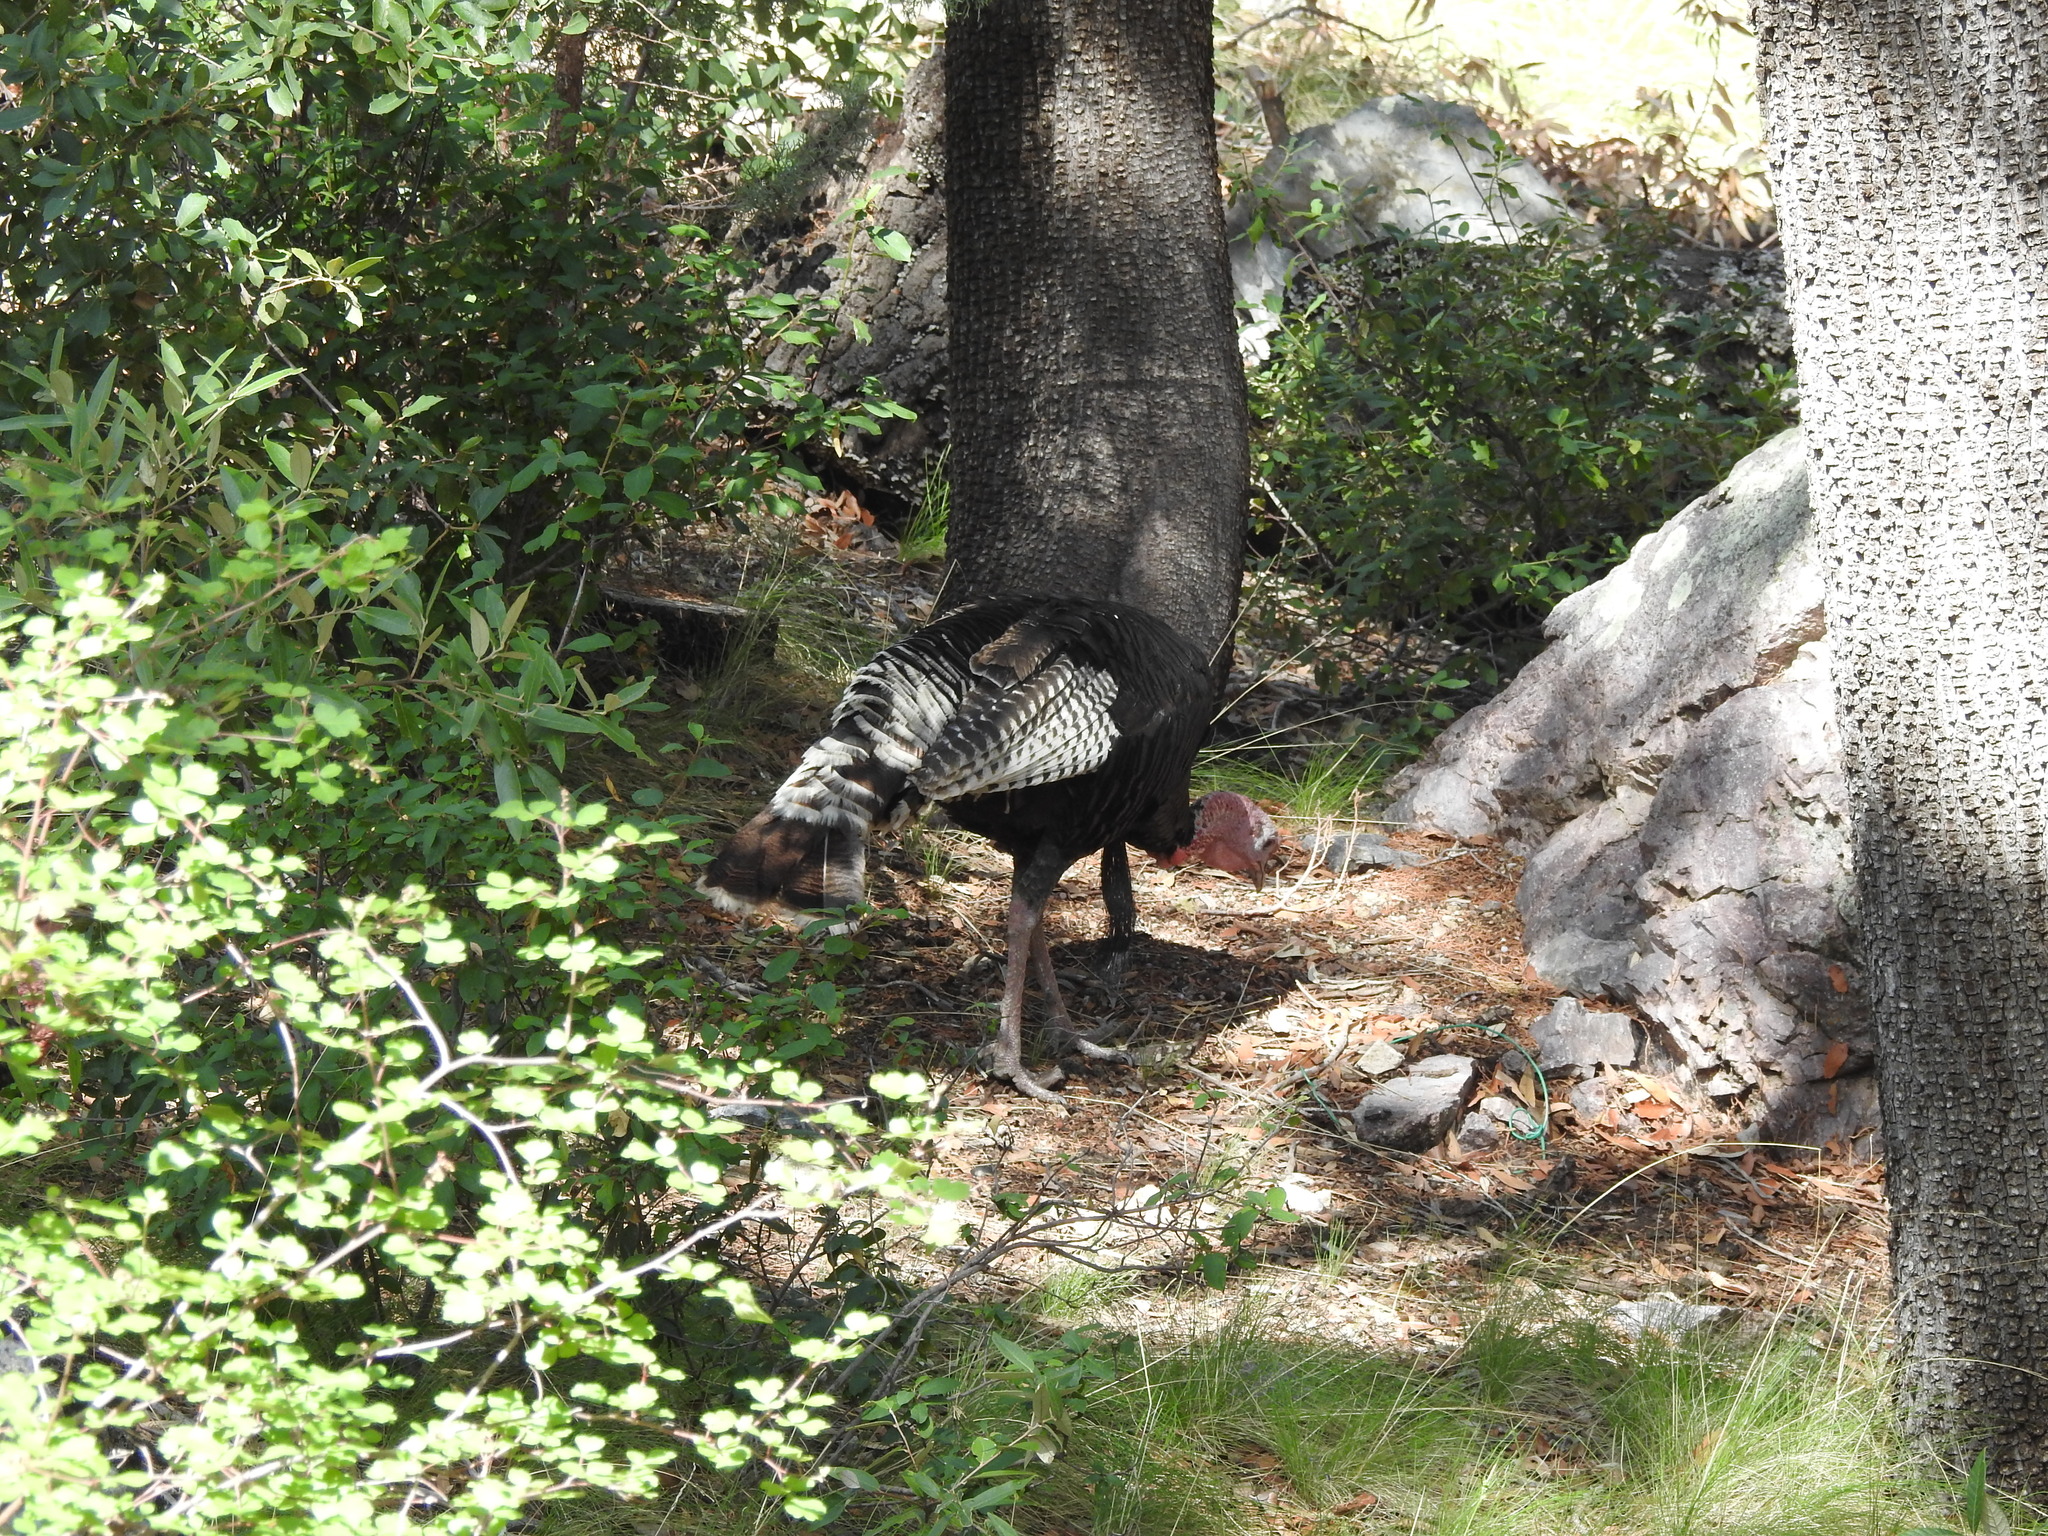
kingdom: Animalia
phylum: Chordata
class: Aves
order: Galliformes
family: Phasianidae
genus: Meleagris
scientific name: Meleagris gallopavo
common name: Wild turkey
